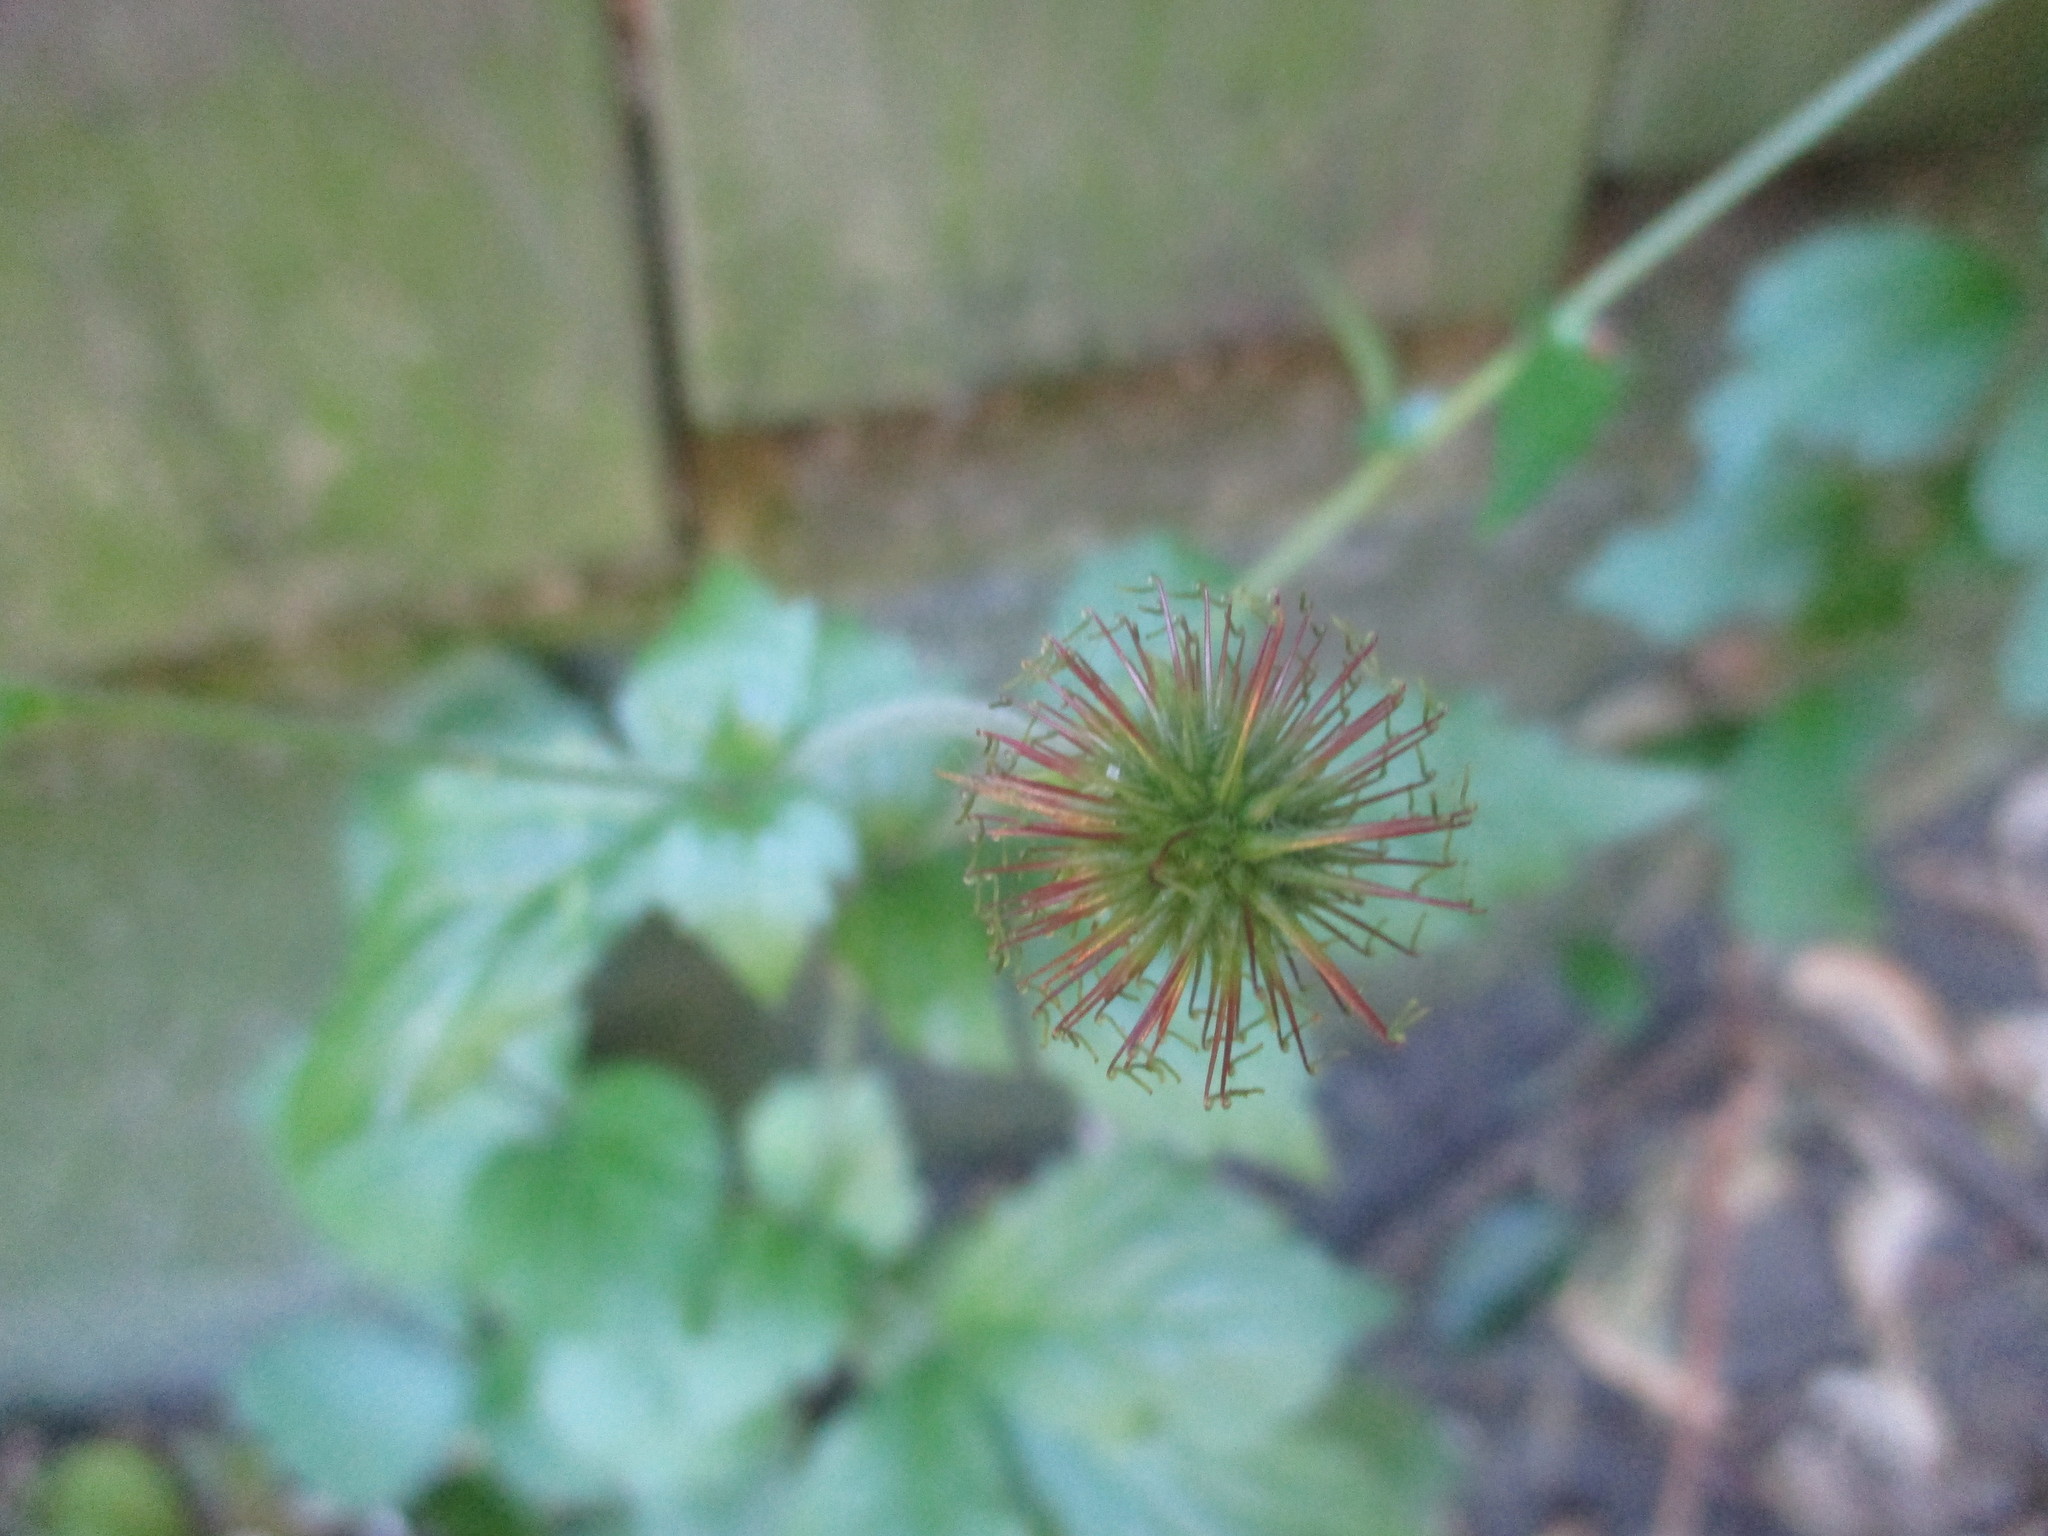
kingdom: Plantae
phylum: Tracheophyta
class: Magnoliopsida
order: Rosales
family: Rosaceae
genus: Geum
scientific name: Geum urbanum
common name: Wood avens
